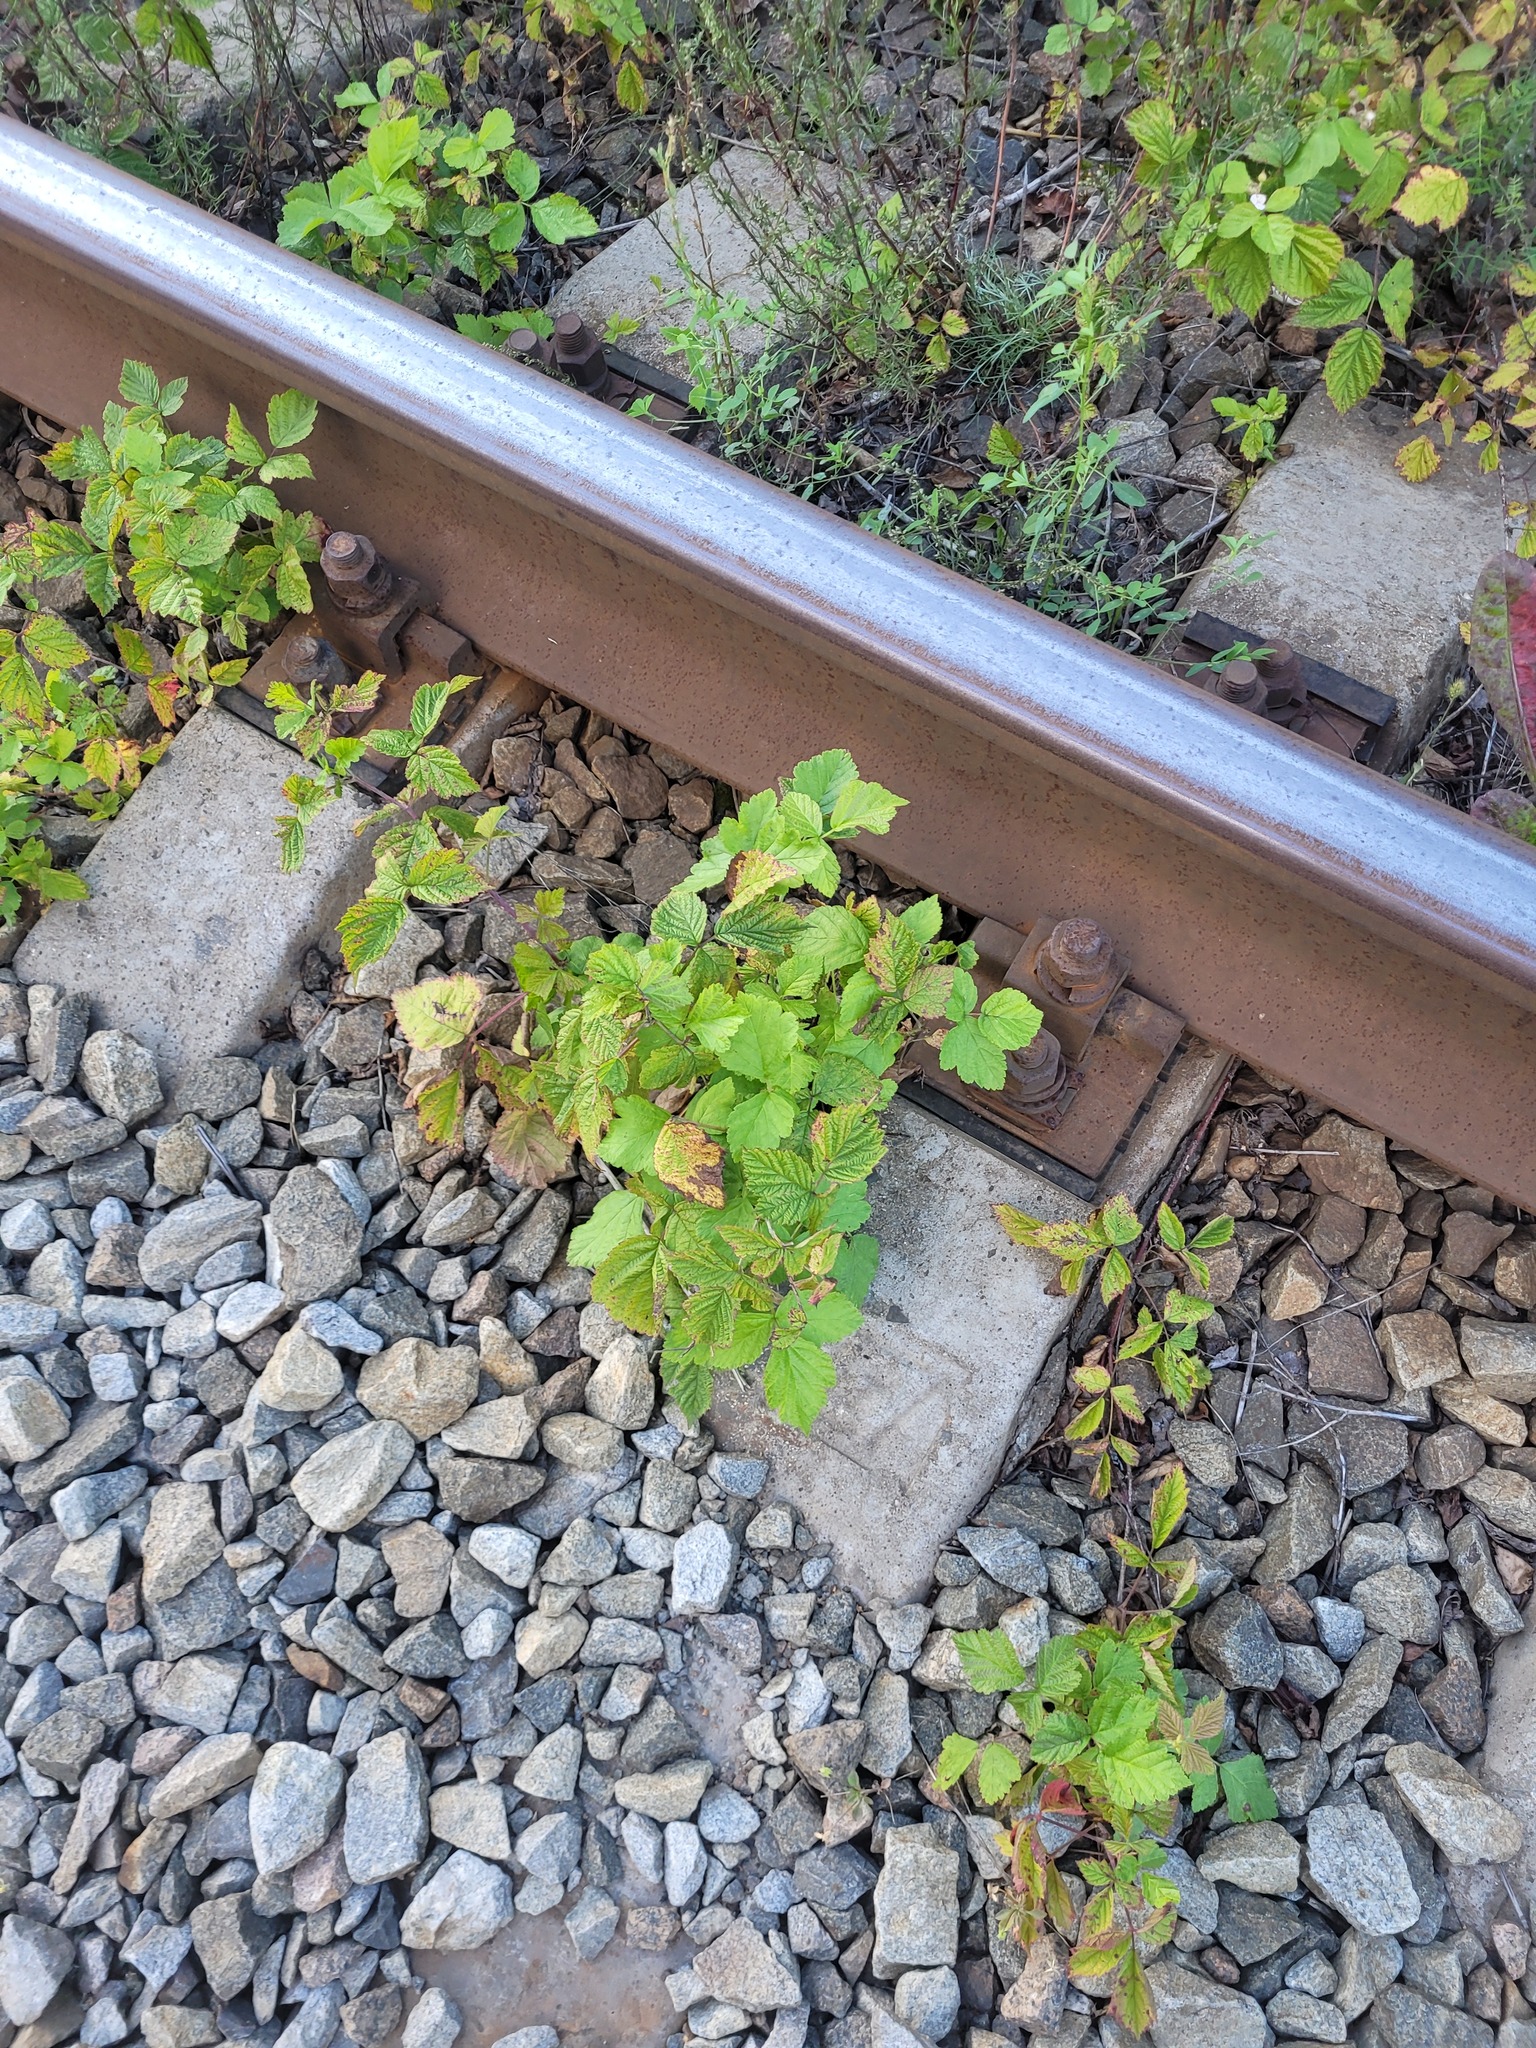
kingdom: Plantae
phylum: Tracheophyta
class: Magnoliopsida
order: Rosales
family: Rosaceae
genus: Rubus
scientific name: Rubus caesius
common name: Dewberry
